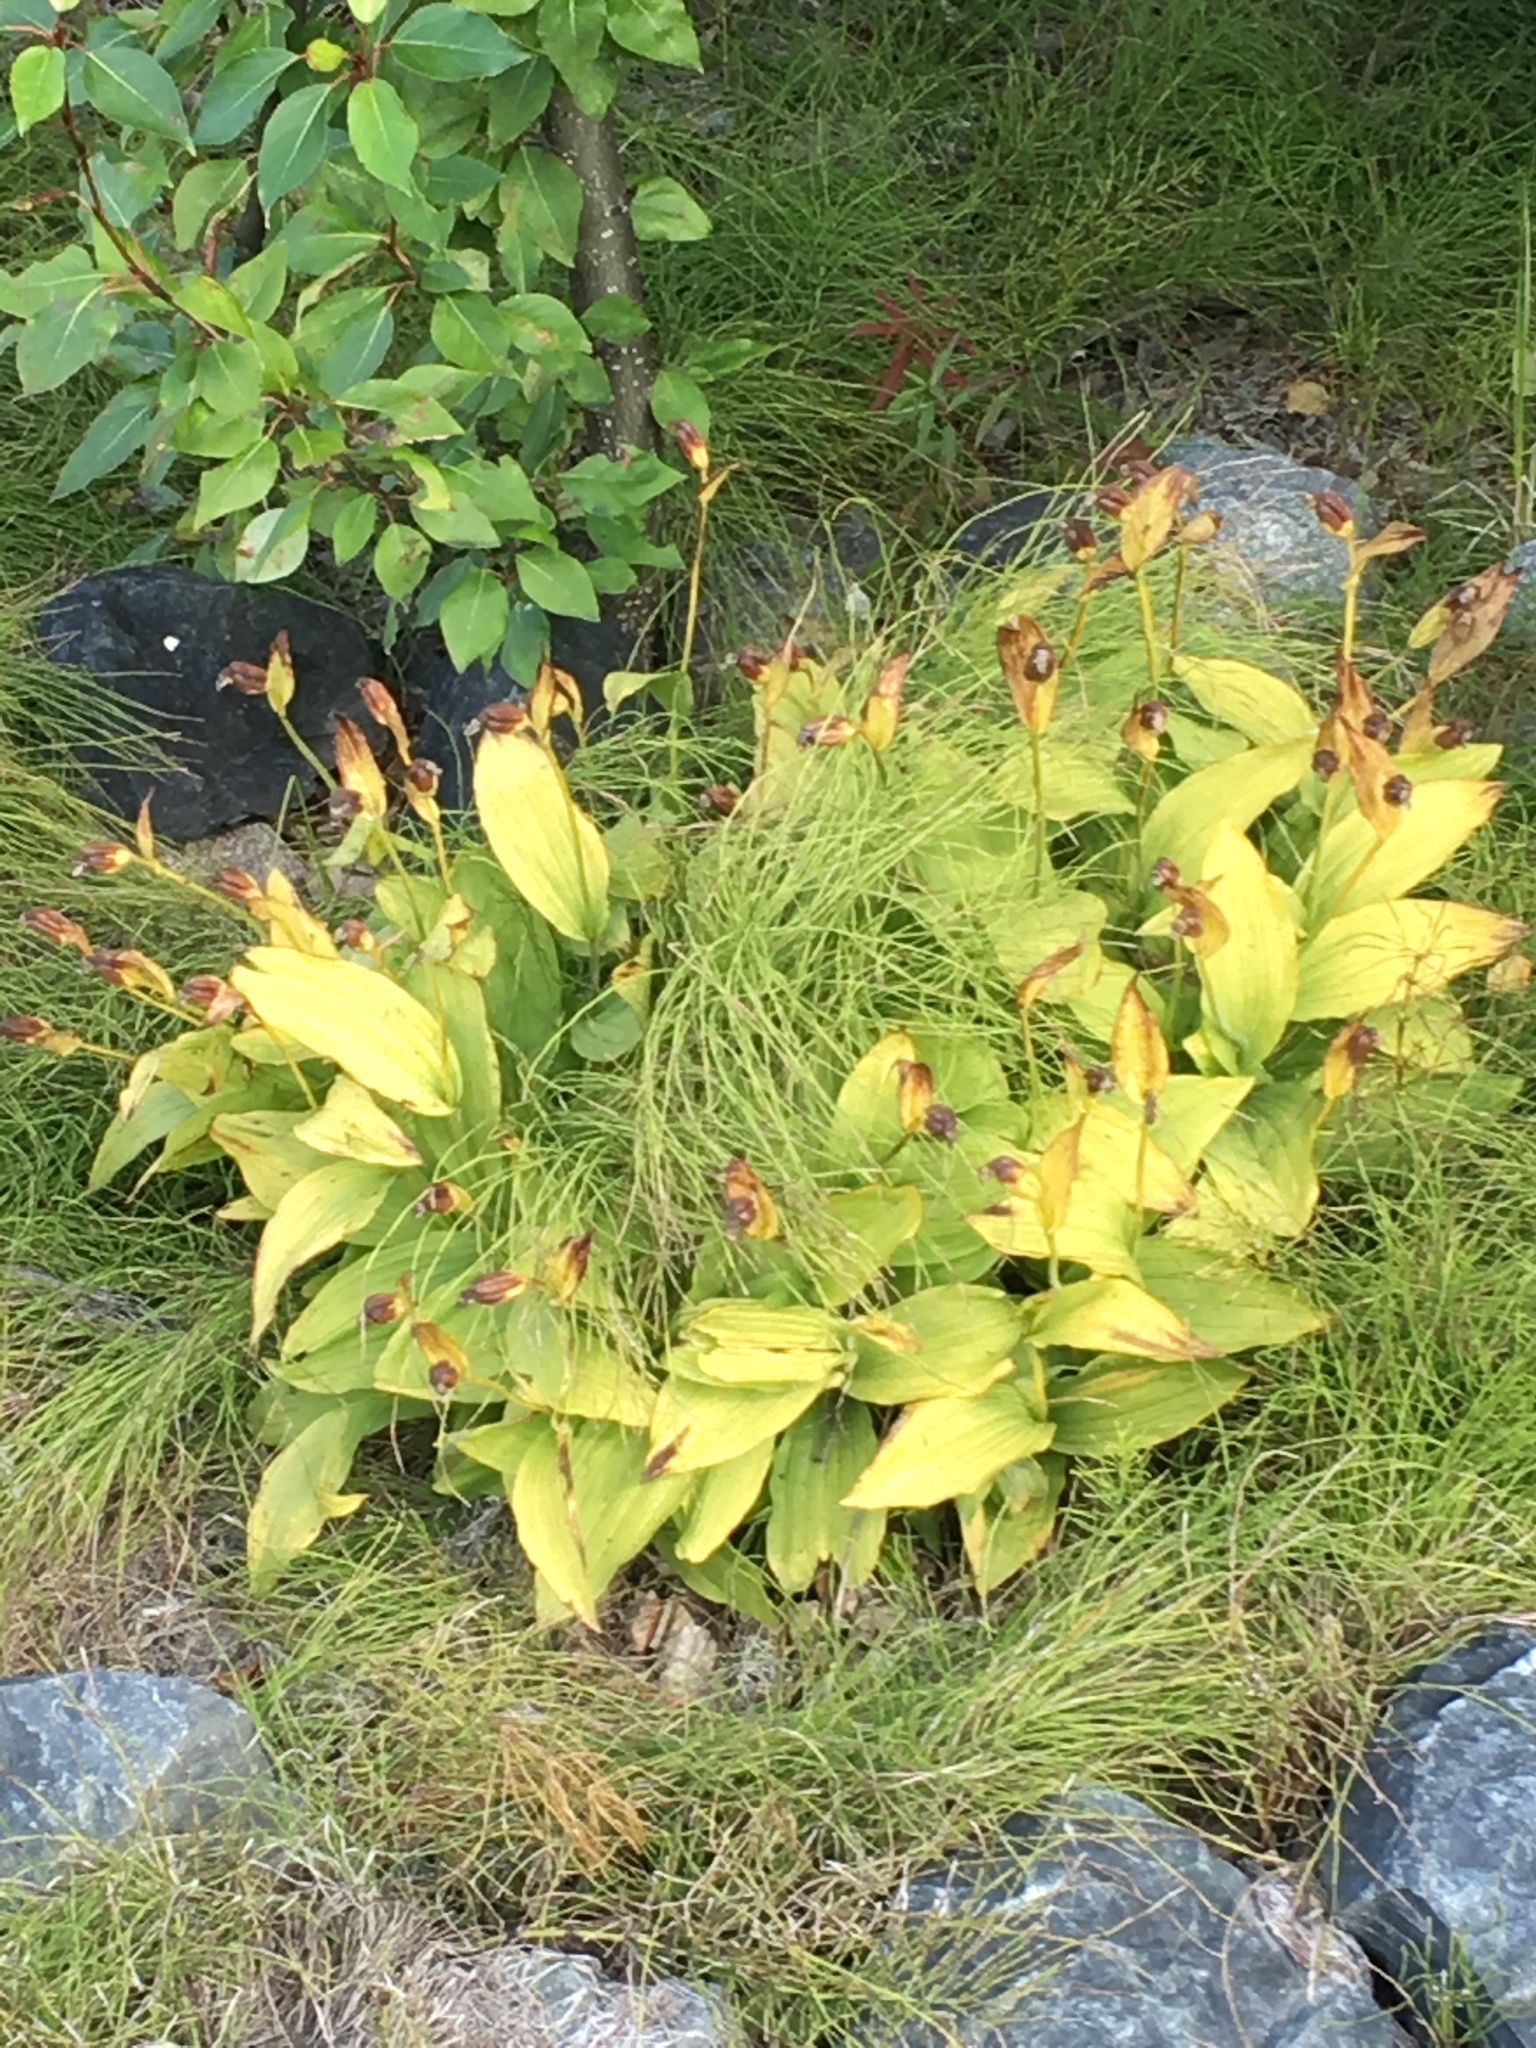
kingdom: Plantae
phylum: Tracheophyta
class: Liliopsida
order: Asparagales
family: Orchidaceae
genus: Cypripedium
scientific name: Cypripedium passerinum
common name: Sparrow's-egg lady's-slipper
